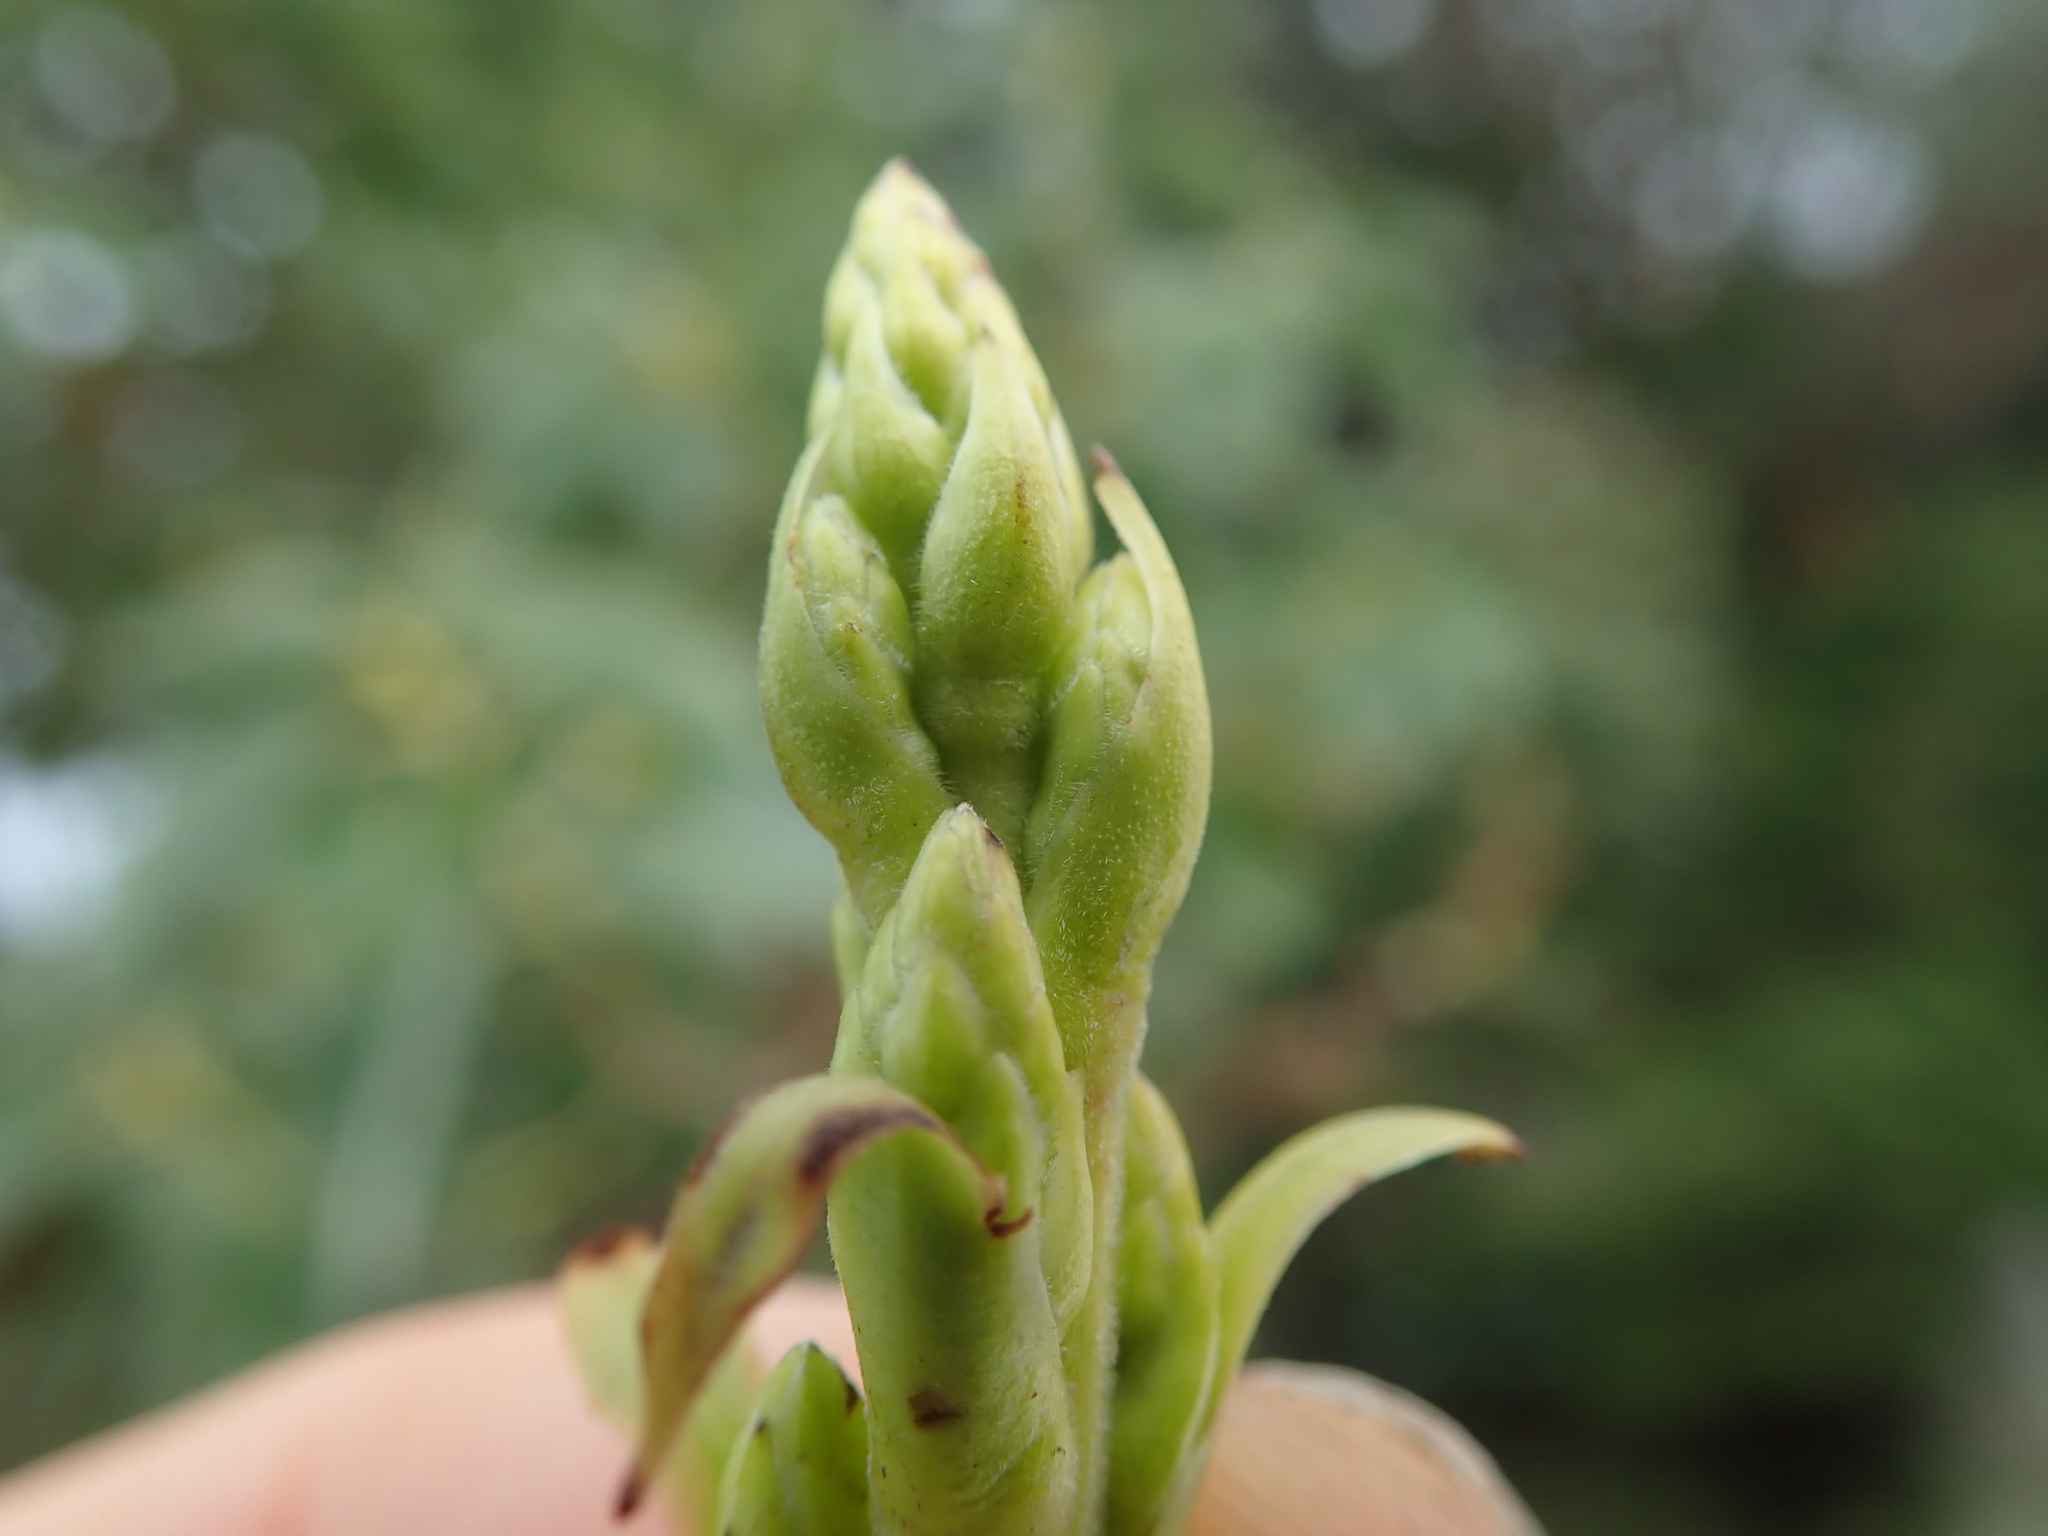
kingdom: Plantae
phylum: Tracheophyta
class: Magnoliopsida
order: Ericales
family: Ericaceae
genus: Arbutus
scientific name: Arbutus menziesii
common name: Pacific madrone
